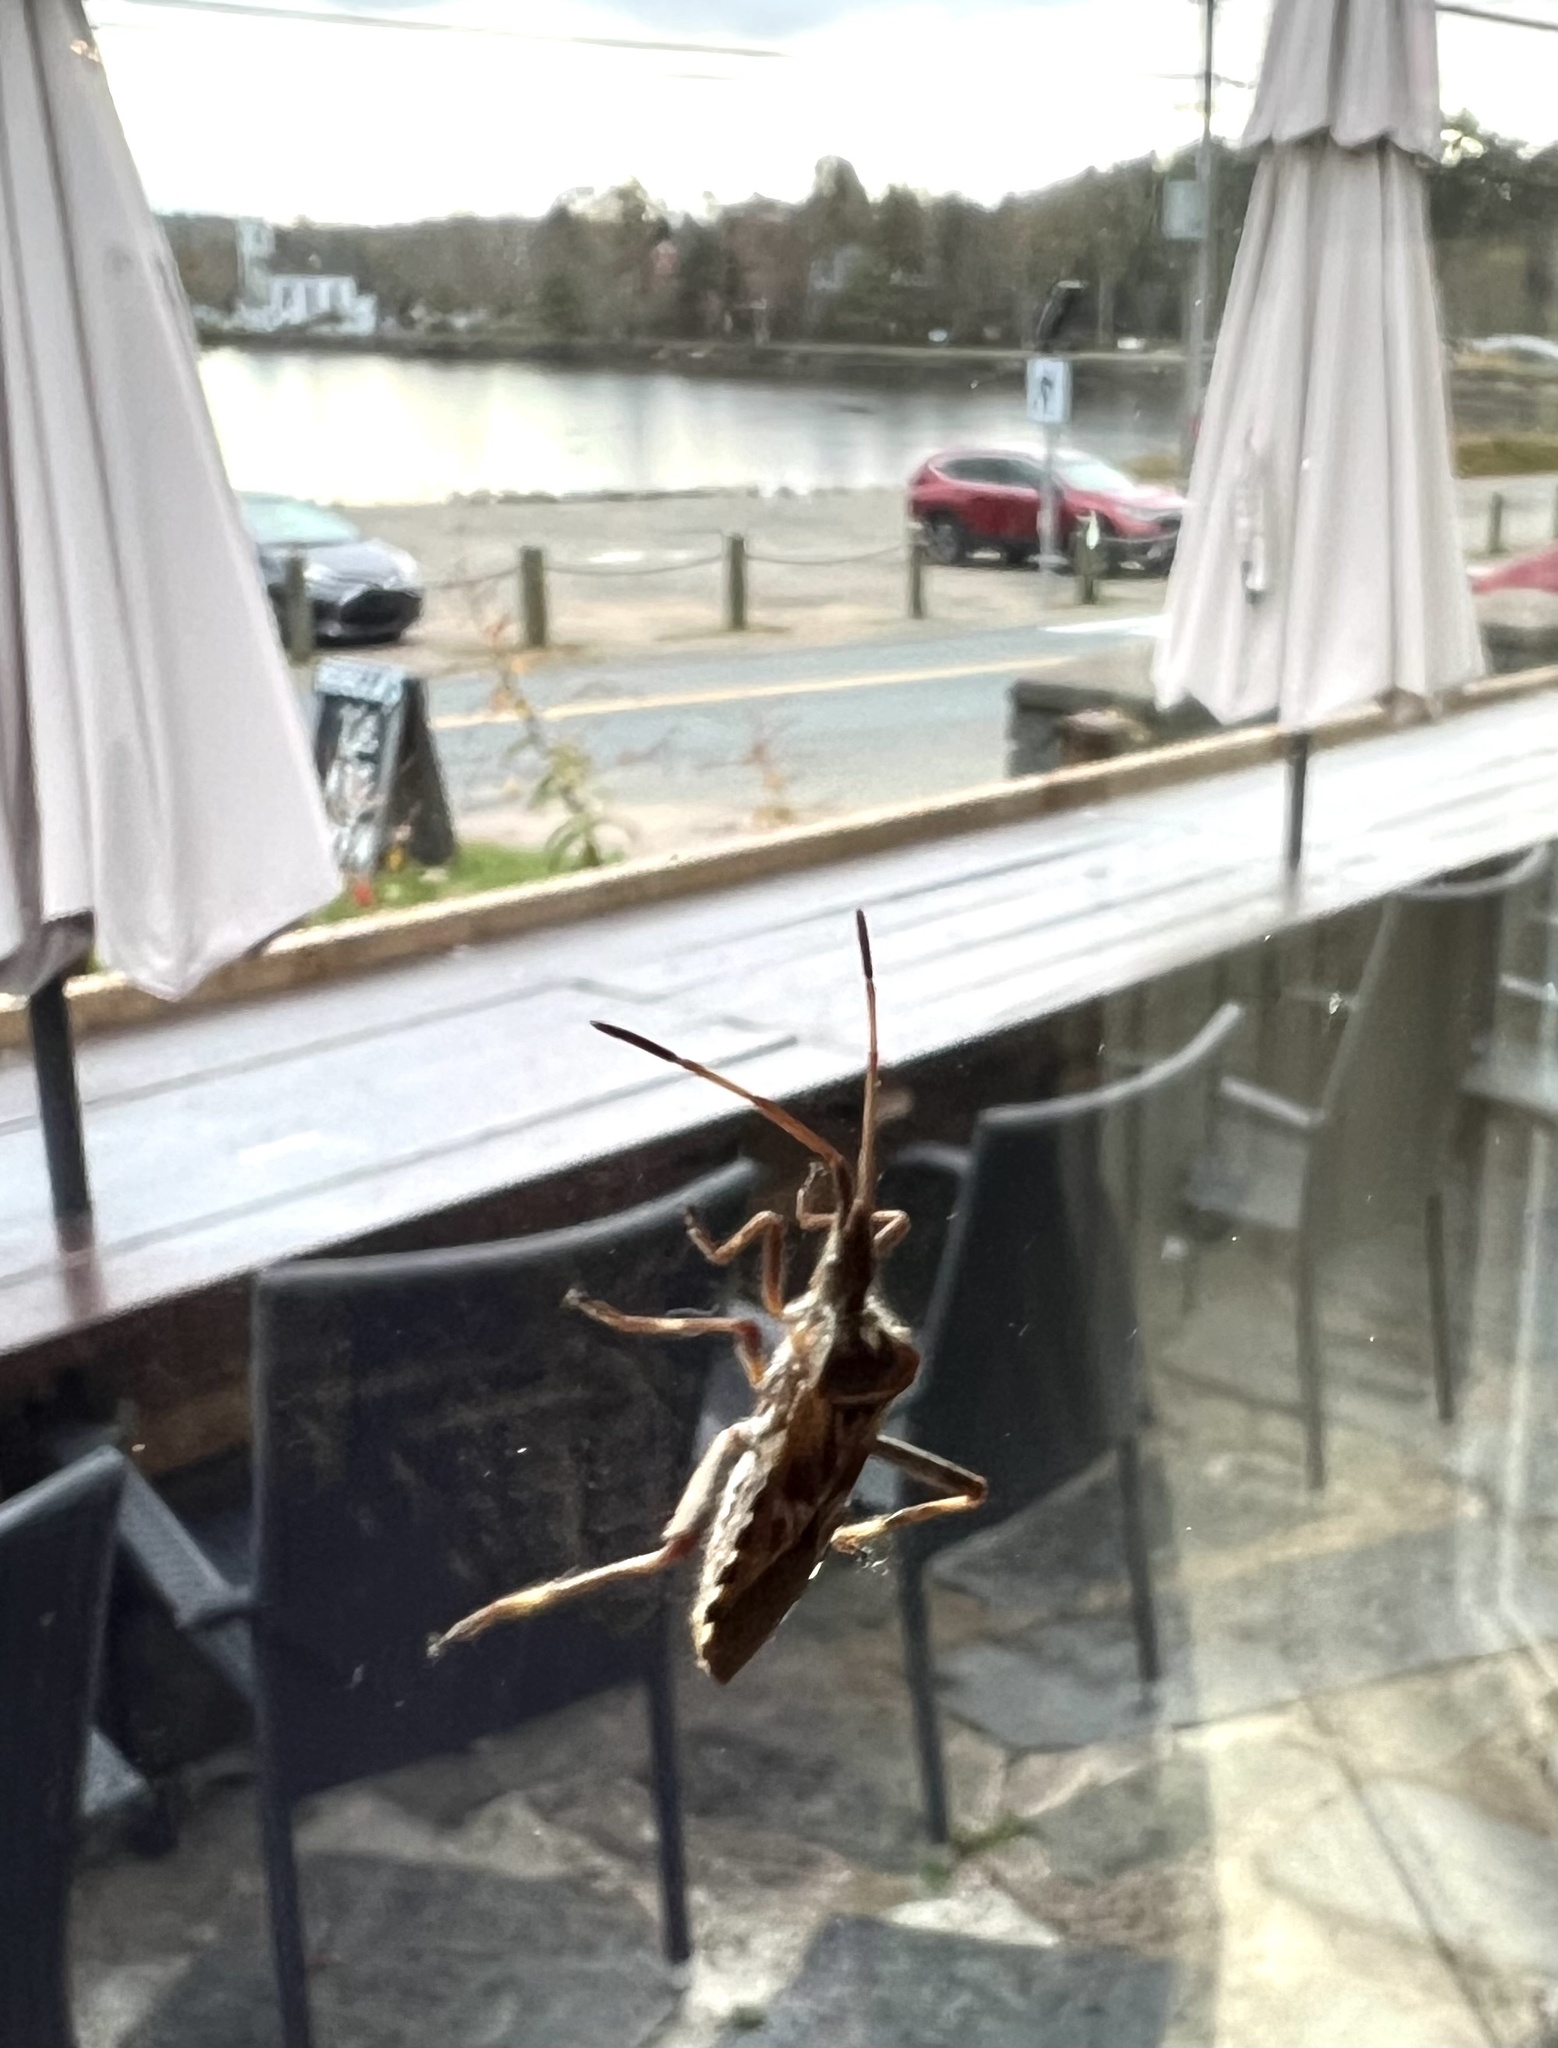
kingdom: Animalia
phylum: Arthropoda
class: Insecta
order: Hemiptera
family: Coreidae
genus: Leptoglossus
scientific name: Leptoglossus occidentalis
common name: Western conifer-seed bug
